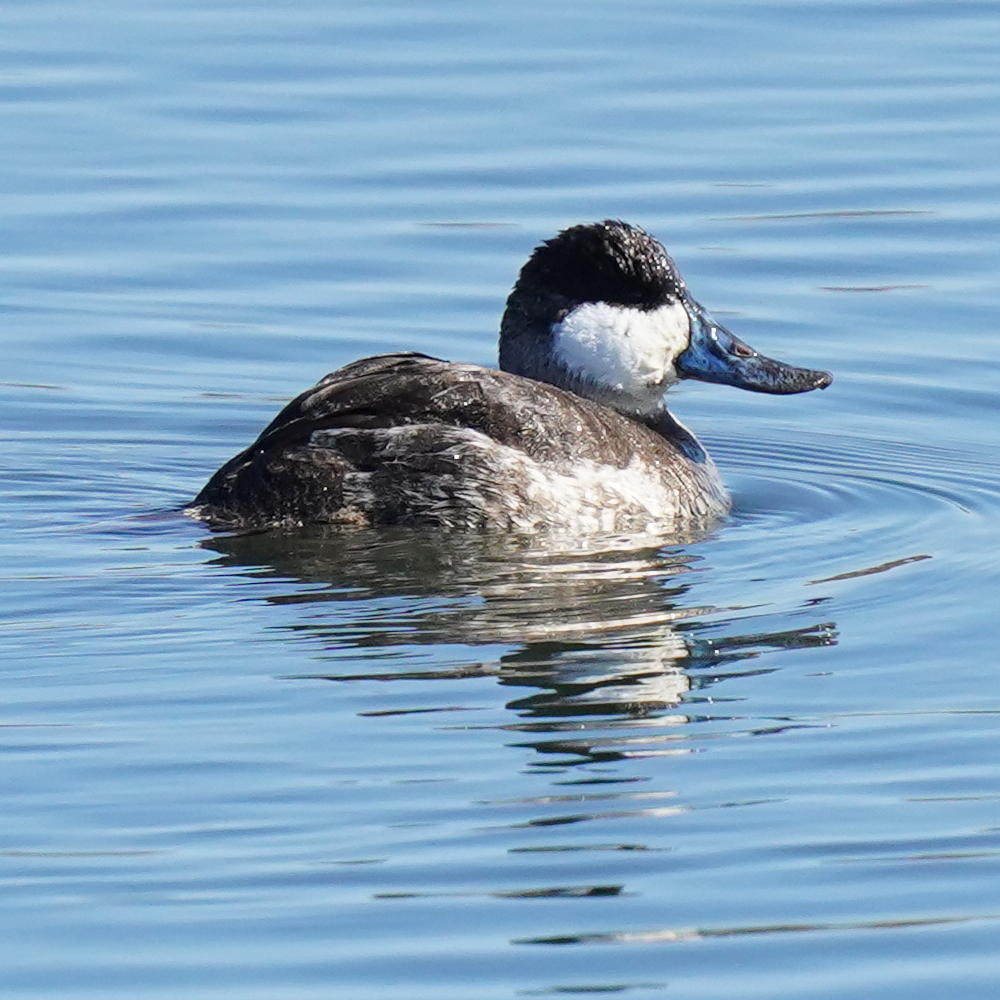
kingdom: Animalia
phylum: Chordata
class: Aves
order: Anseriformes
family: Anatidae
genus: Oxyura
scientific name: Oxyura jamaicensis
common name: Ruddy duck
